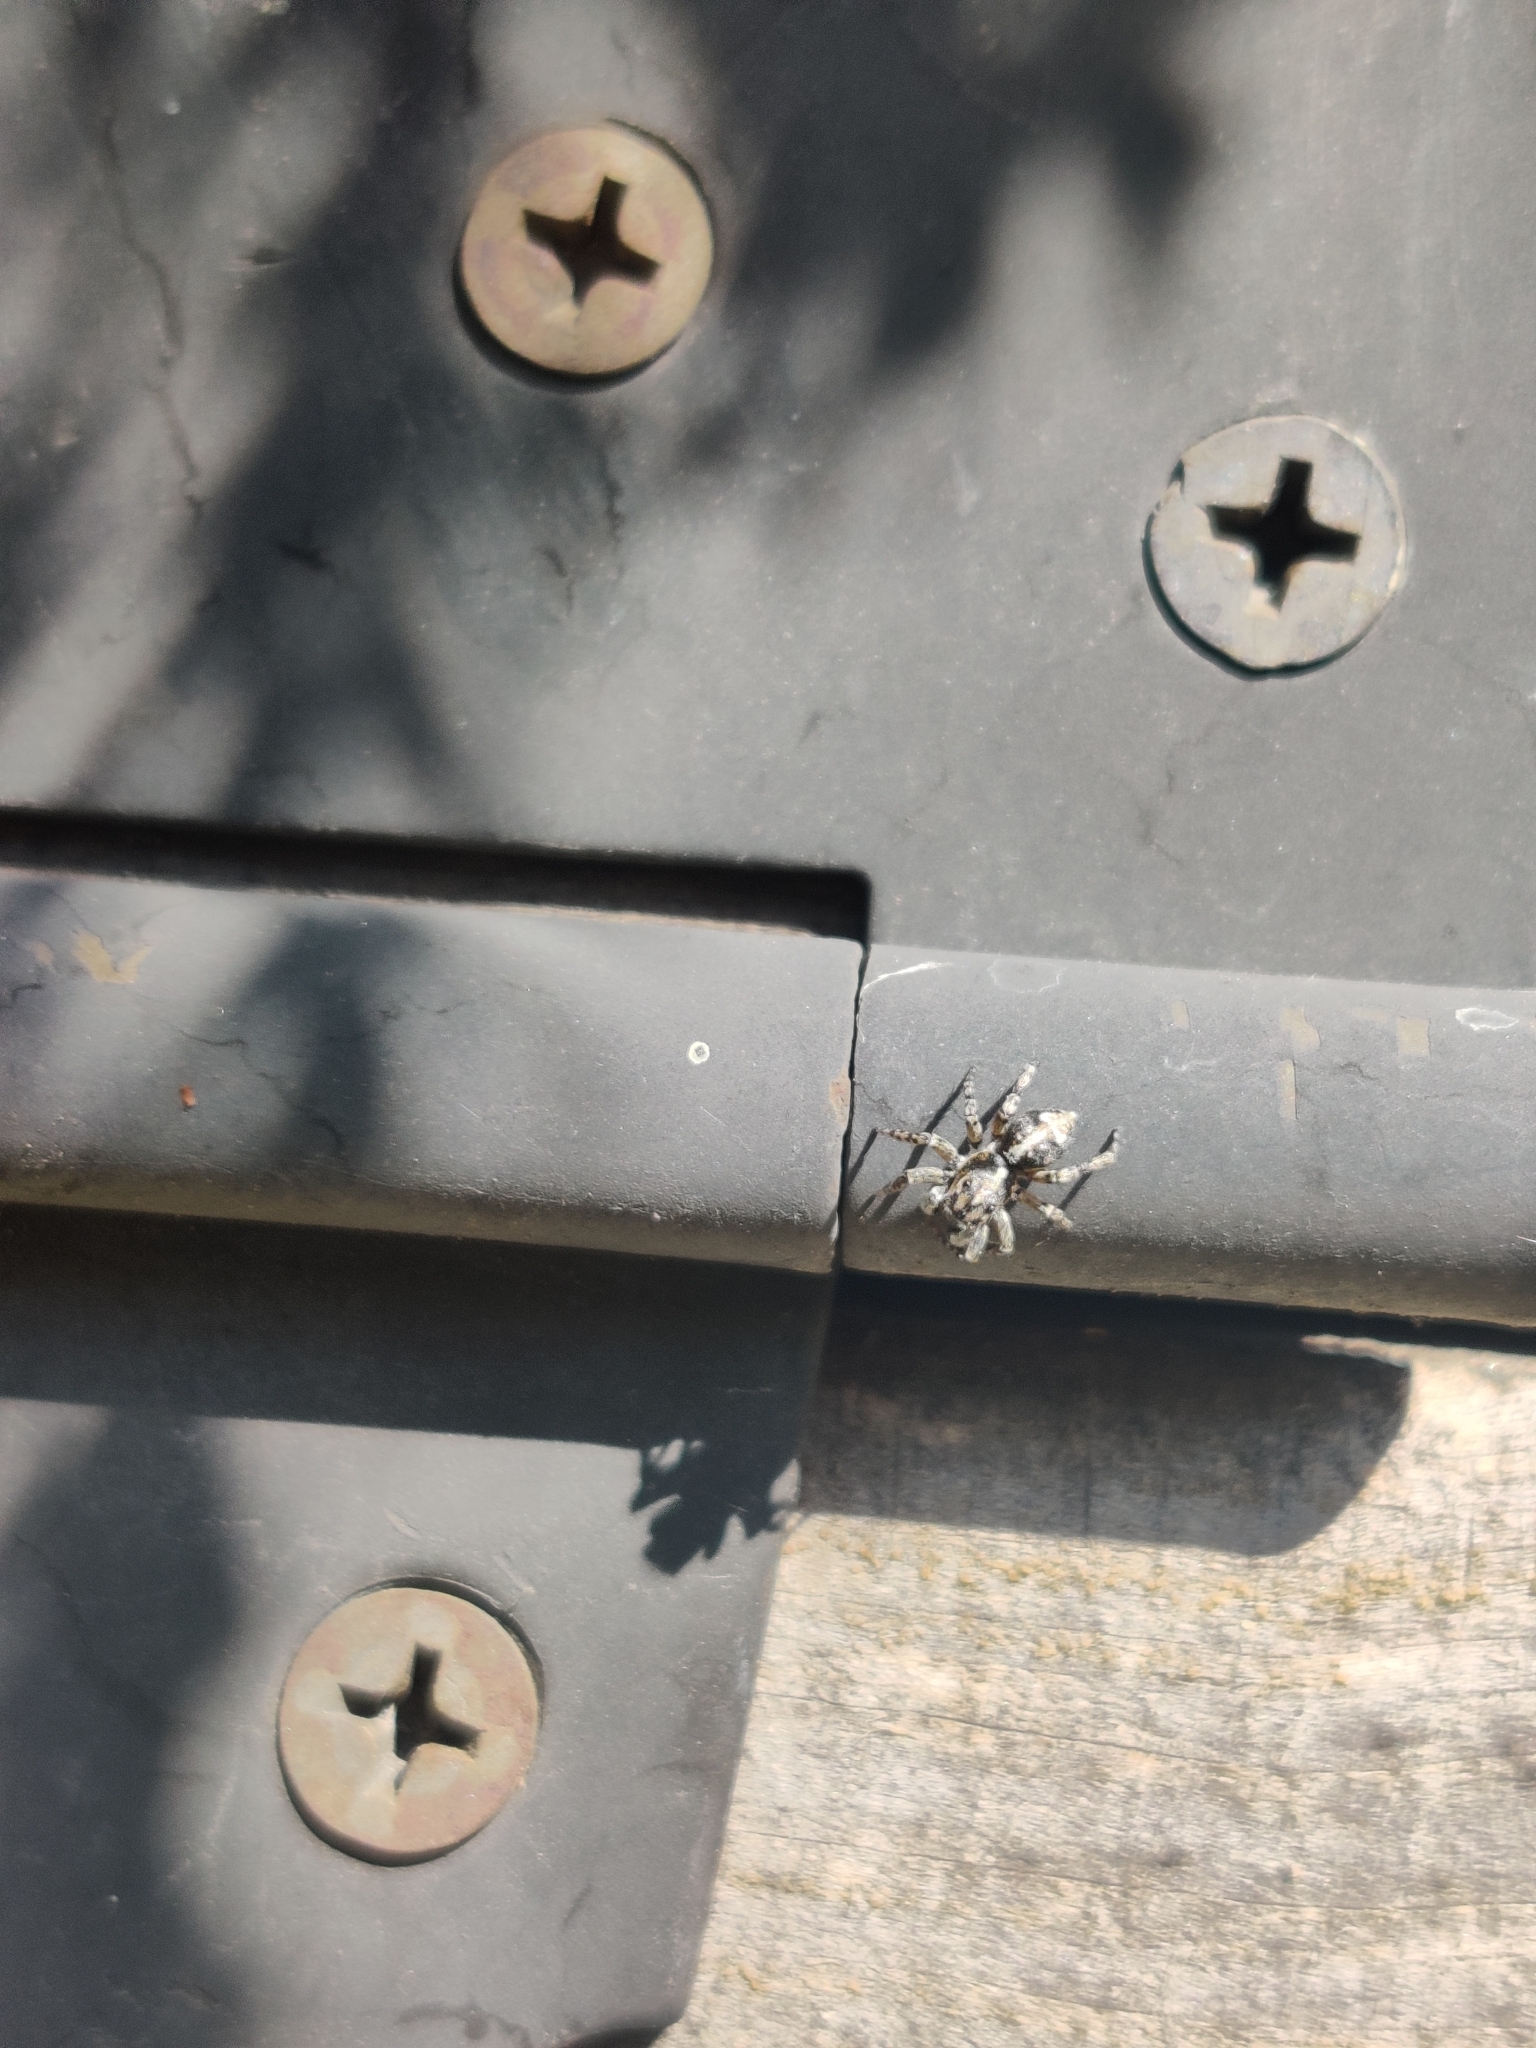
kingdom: Animalia
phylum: Arthropoda
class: Arachnida
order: Araneae
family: Salticidae
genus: Attulus
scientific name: Attulus terebratus
